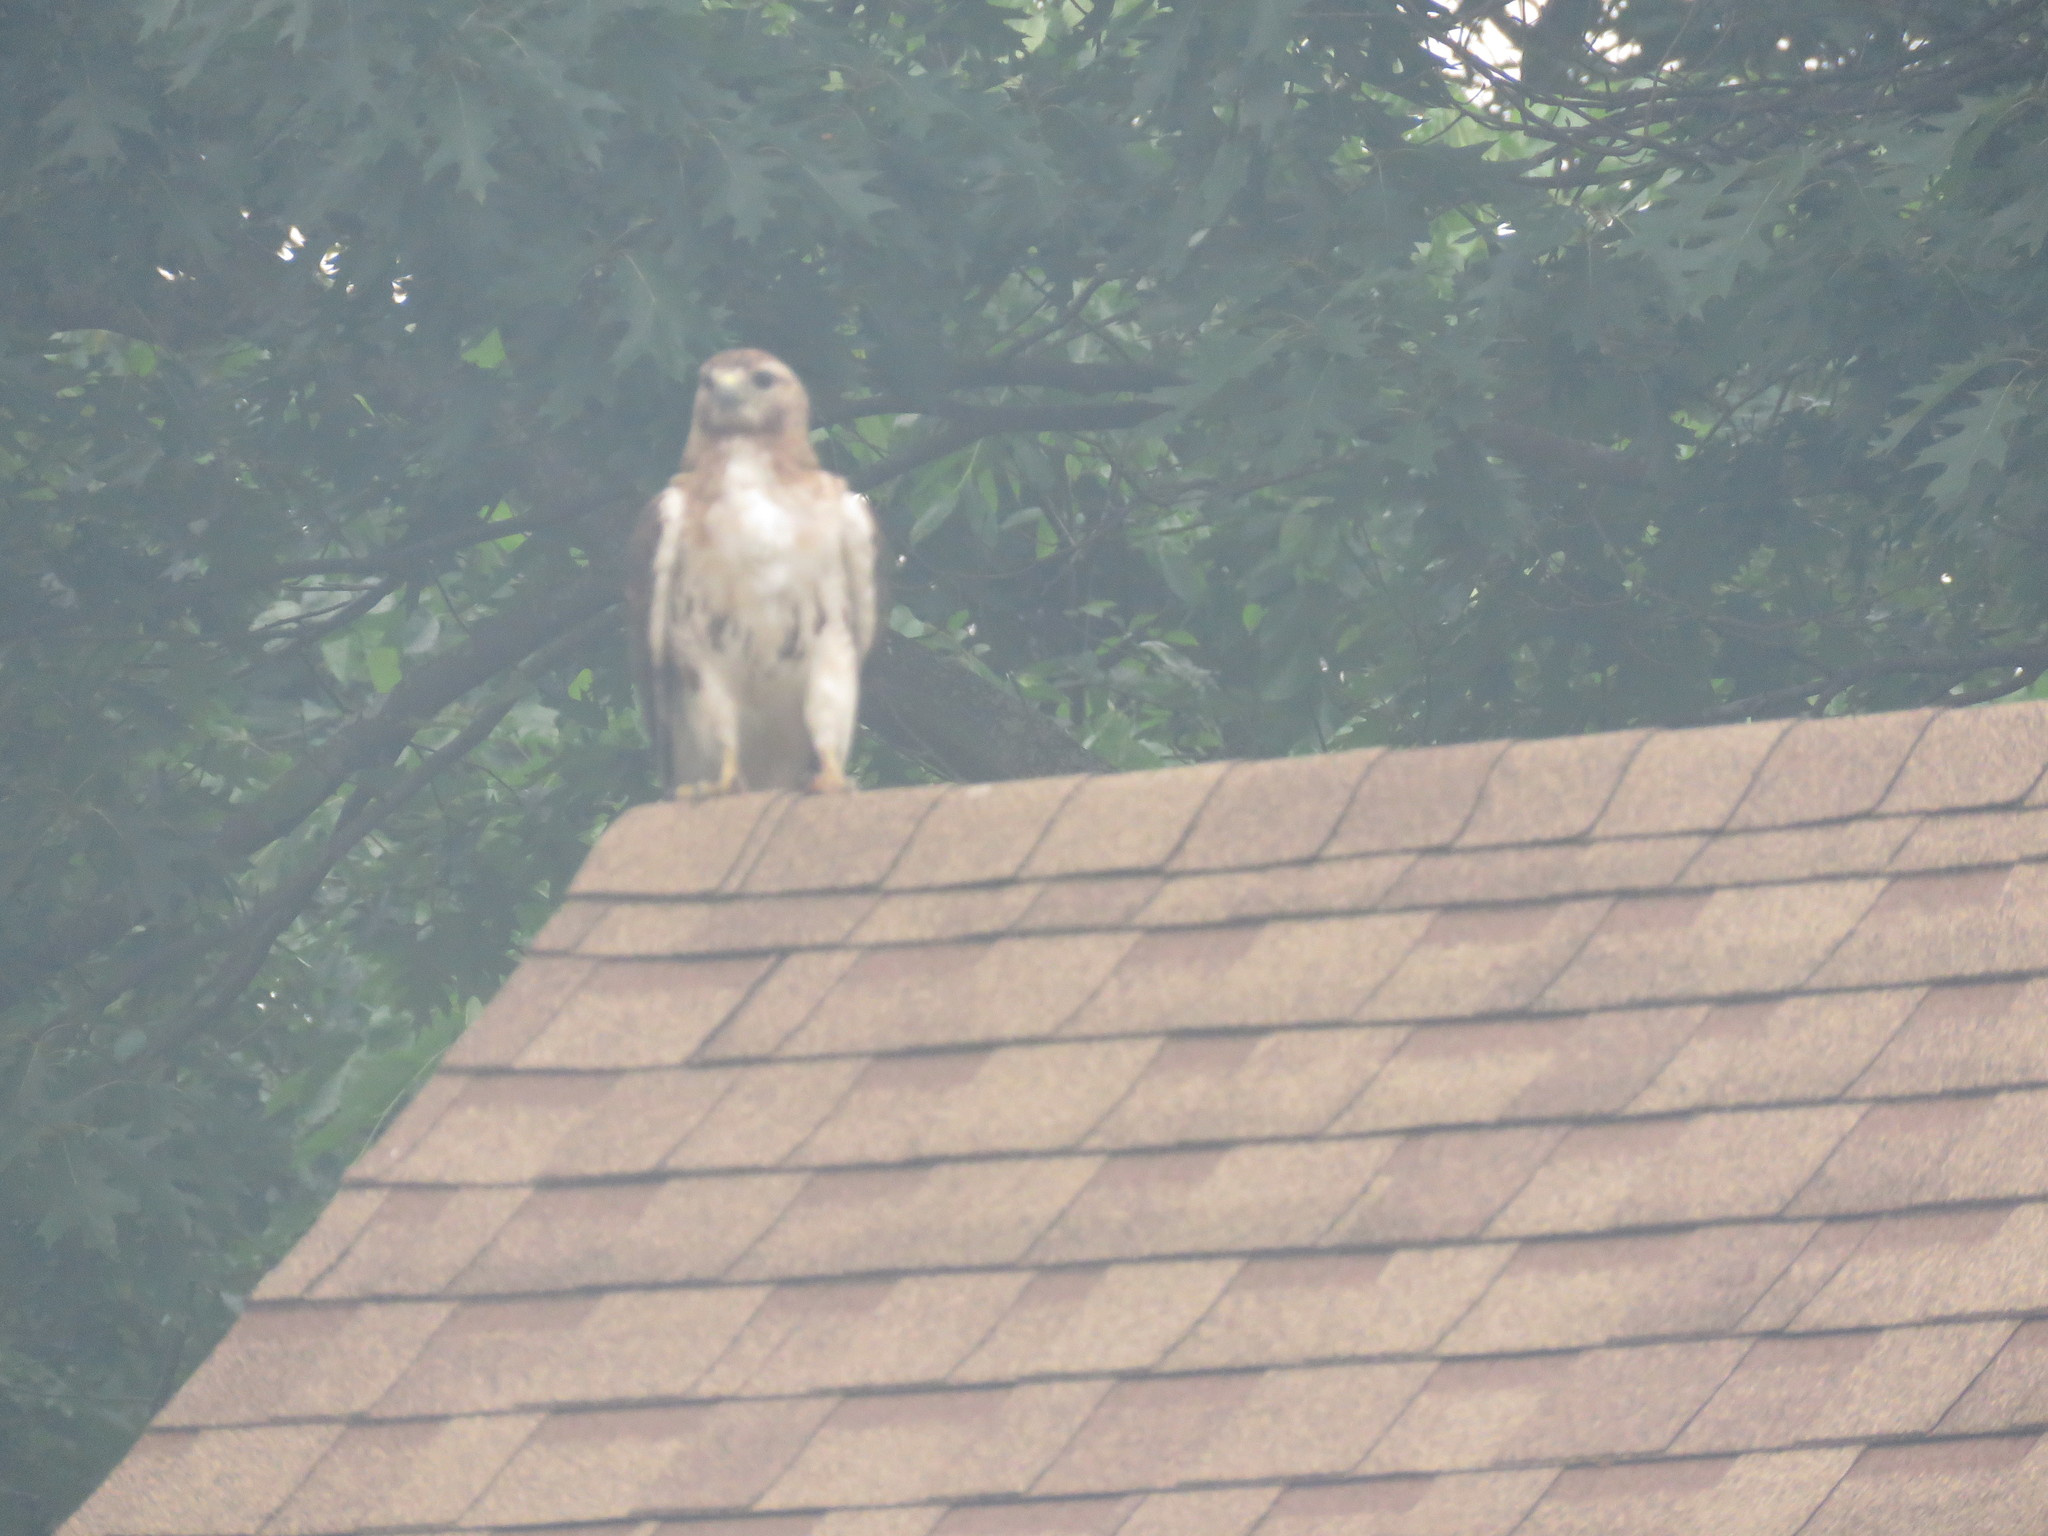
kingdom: Animalia
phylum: Chordata
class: Aves
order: Accipitriformes
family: Accipitridae
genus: Buteo
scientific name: Buteo jamaicensis
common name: Red-tailed hawk
